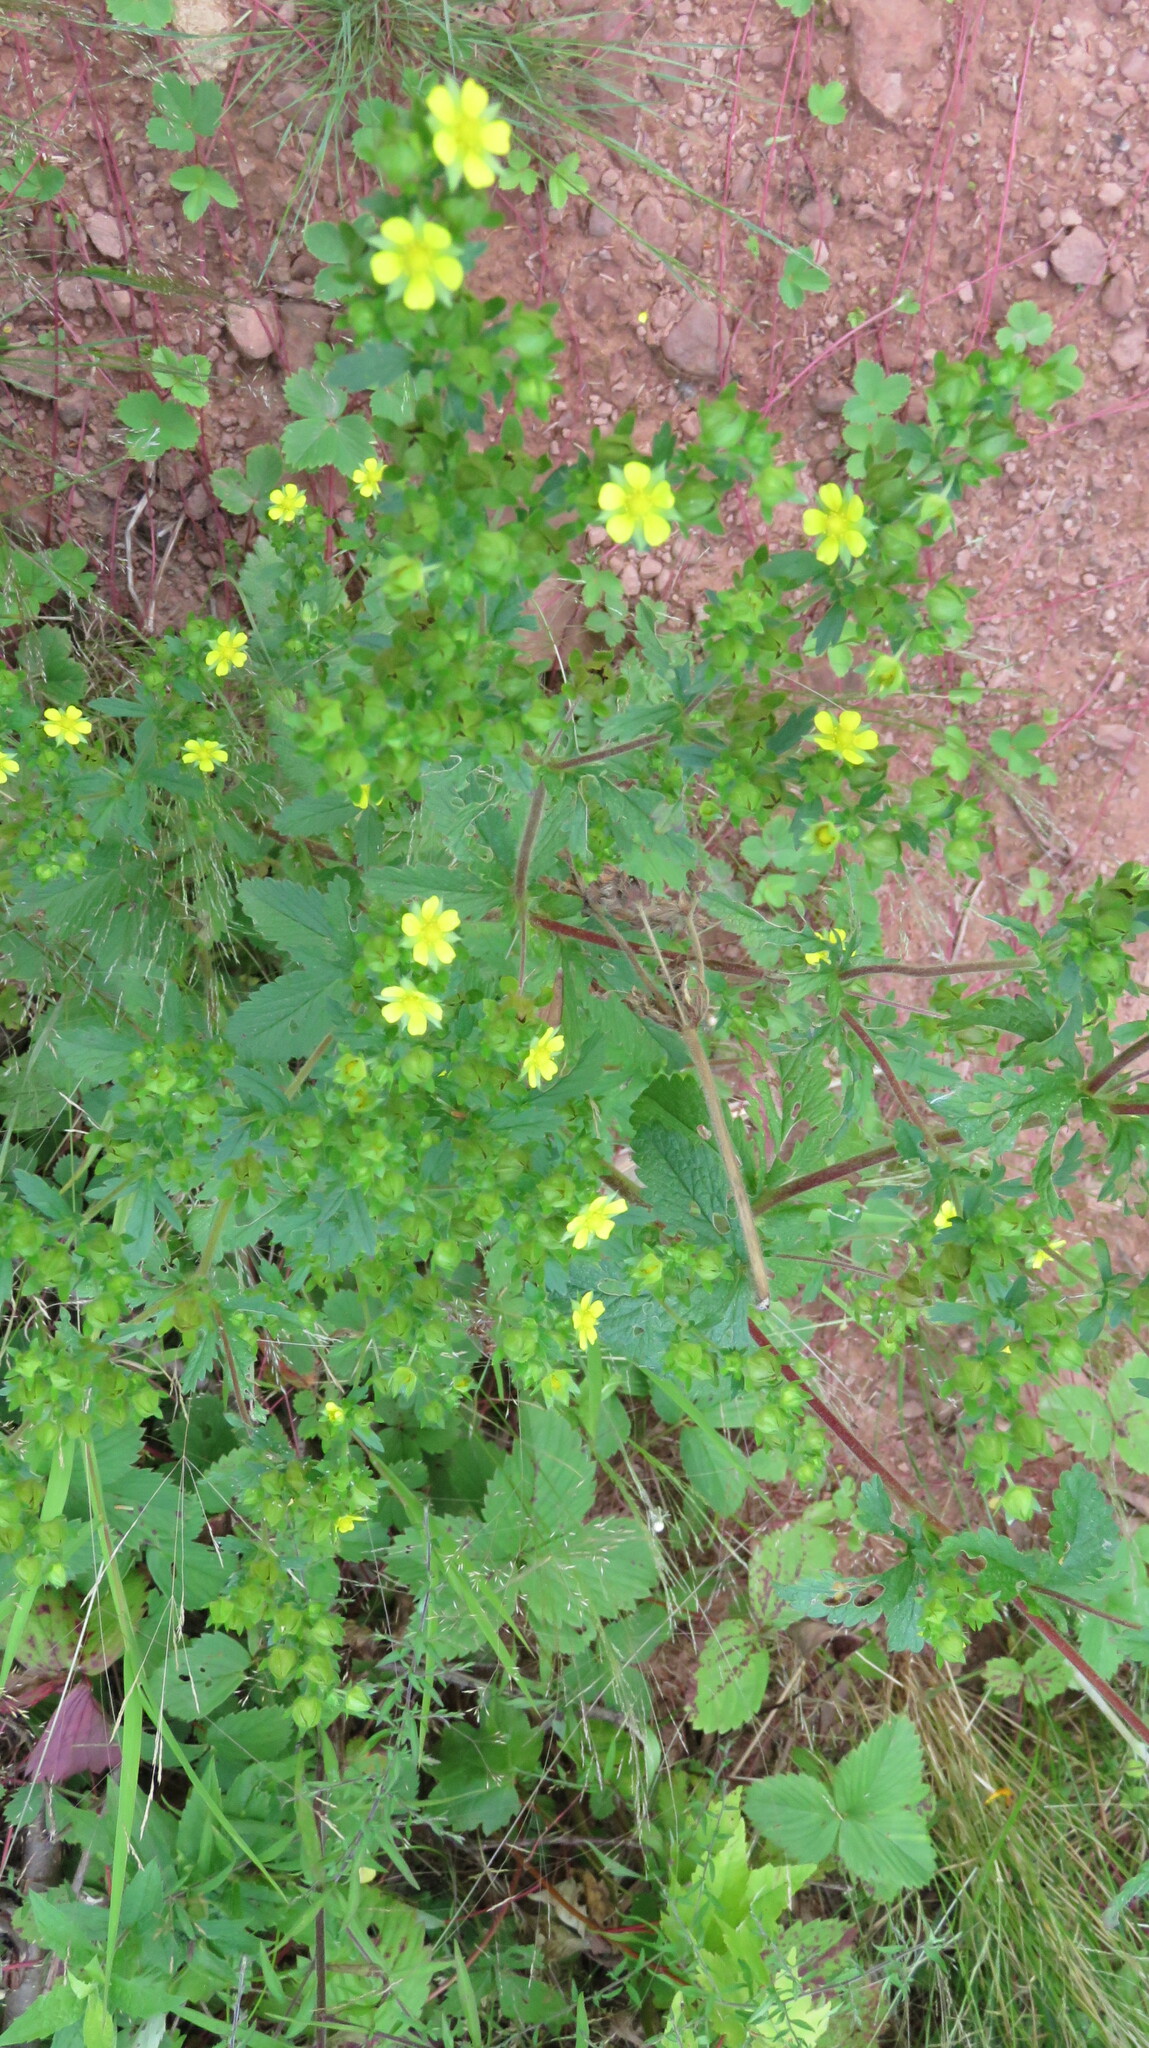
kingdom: Plantae
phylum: Tracheophyta
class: Magnoliopsida
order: Rosales
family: Rosaceae
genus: Potentilla
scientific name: Potentilla norvegica
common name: Ternate-leaved cinquefoil
